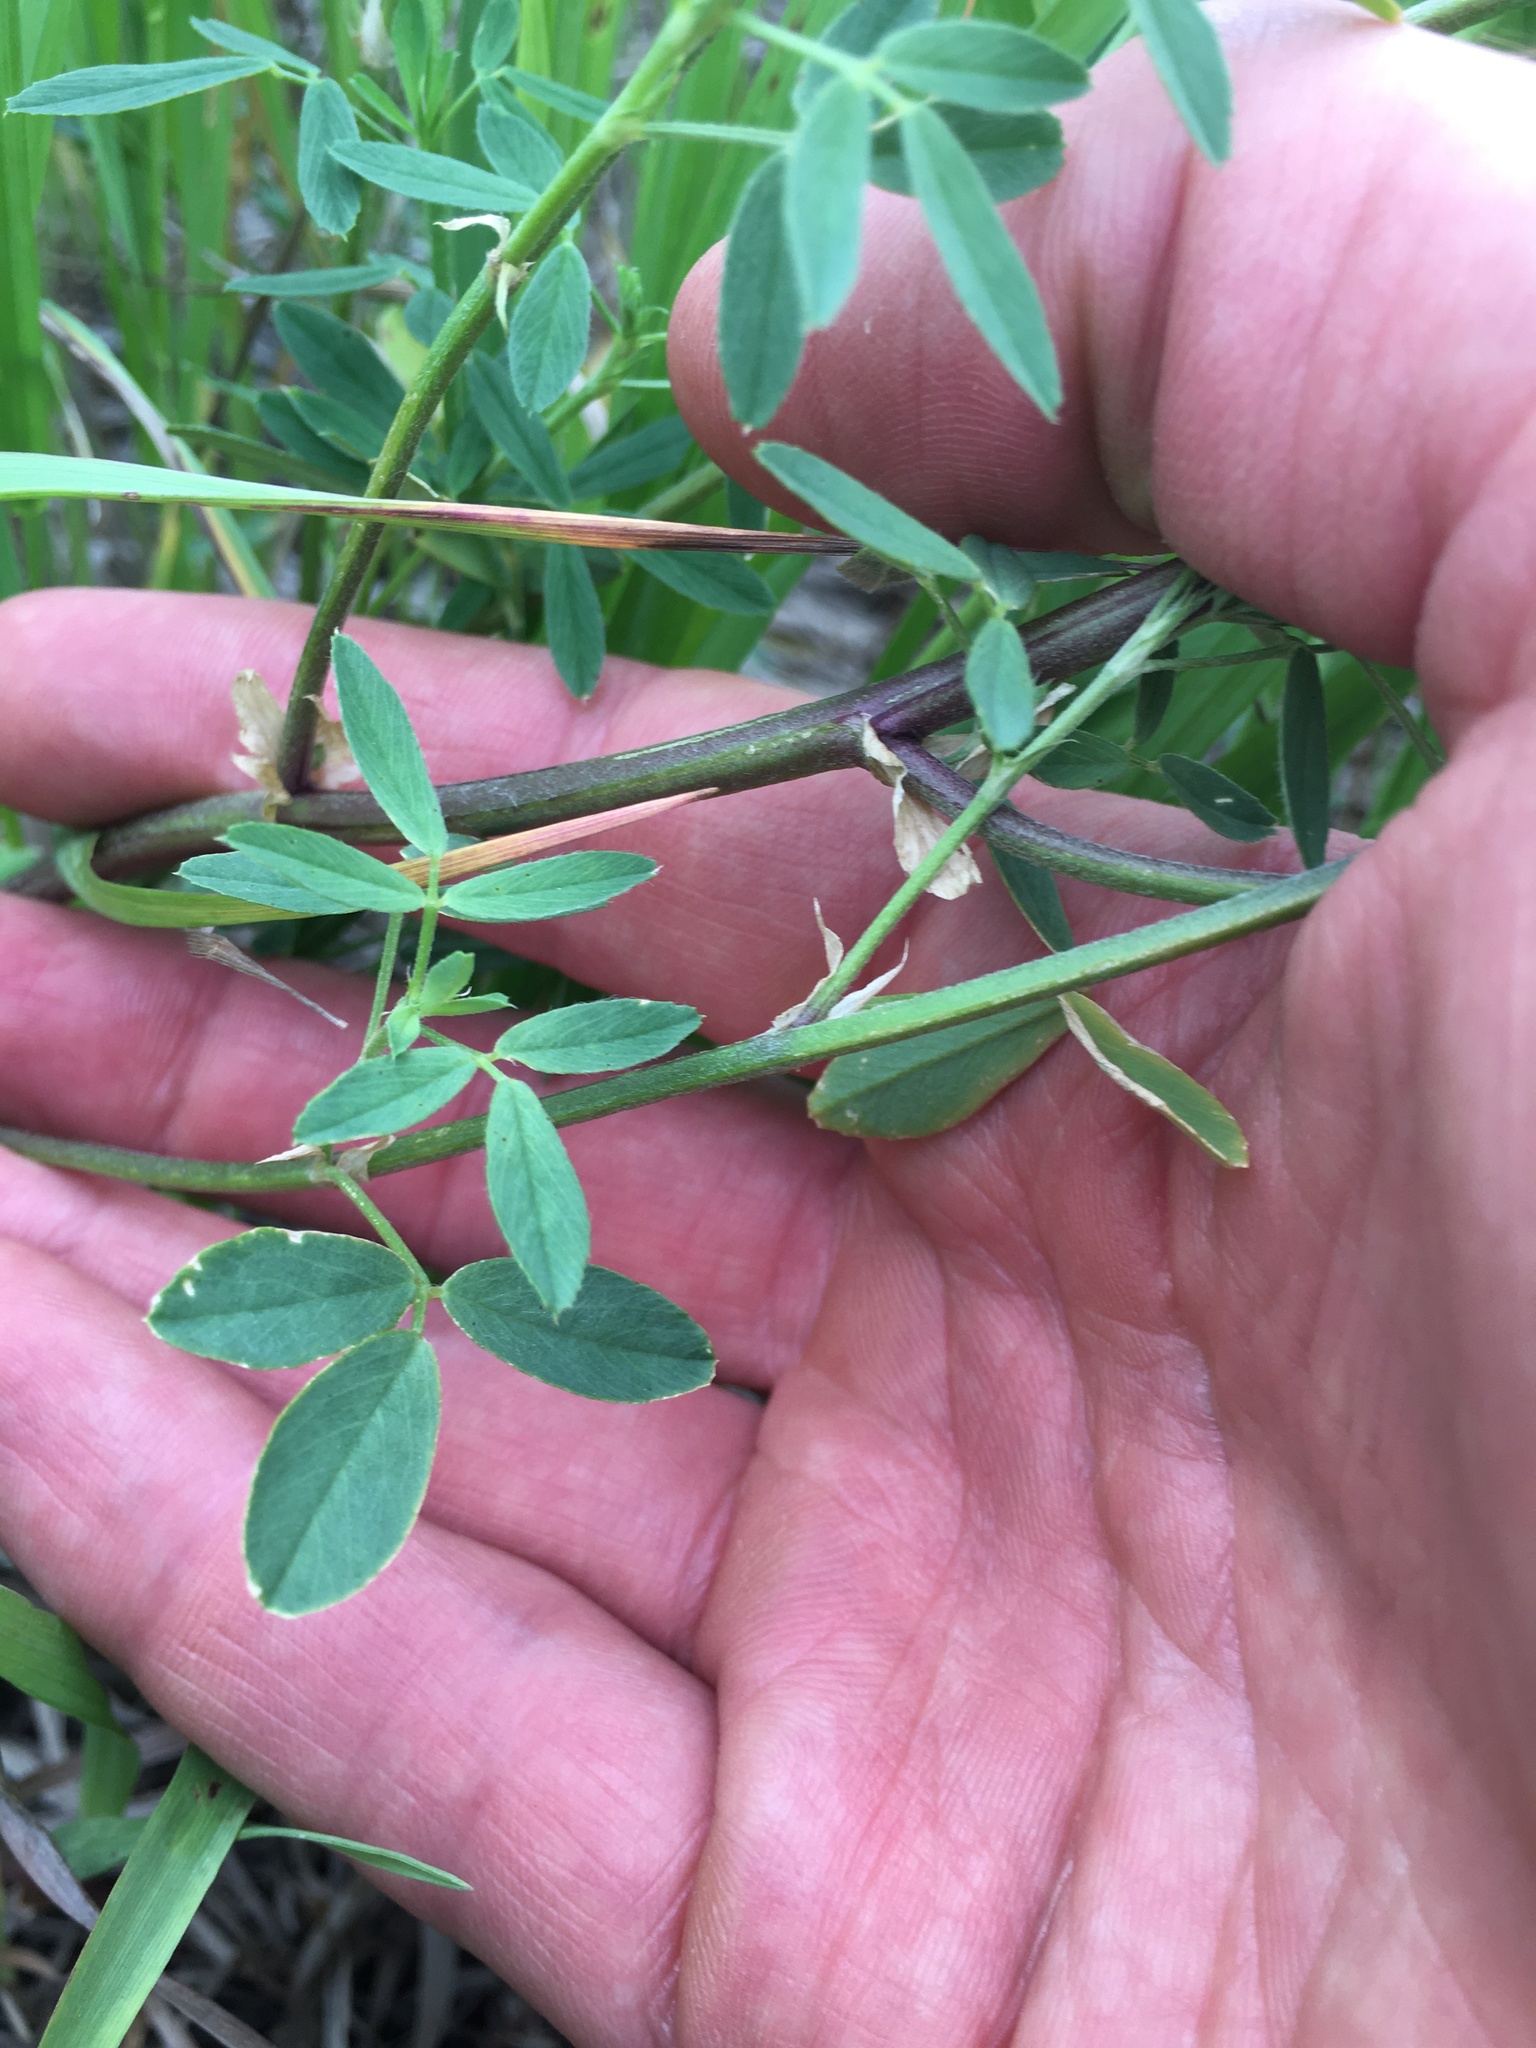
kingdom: Plantae
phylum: Tracheophyta
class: Magnoliopsida
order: Fabales
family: Fabaceae
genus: Medicago
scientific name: Medicago sativa
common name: Alfalfa
